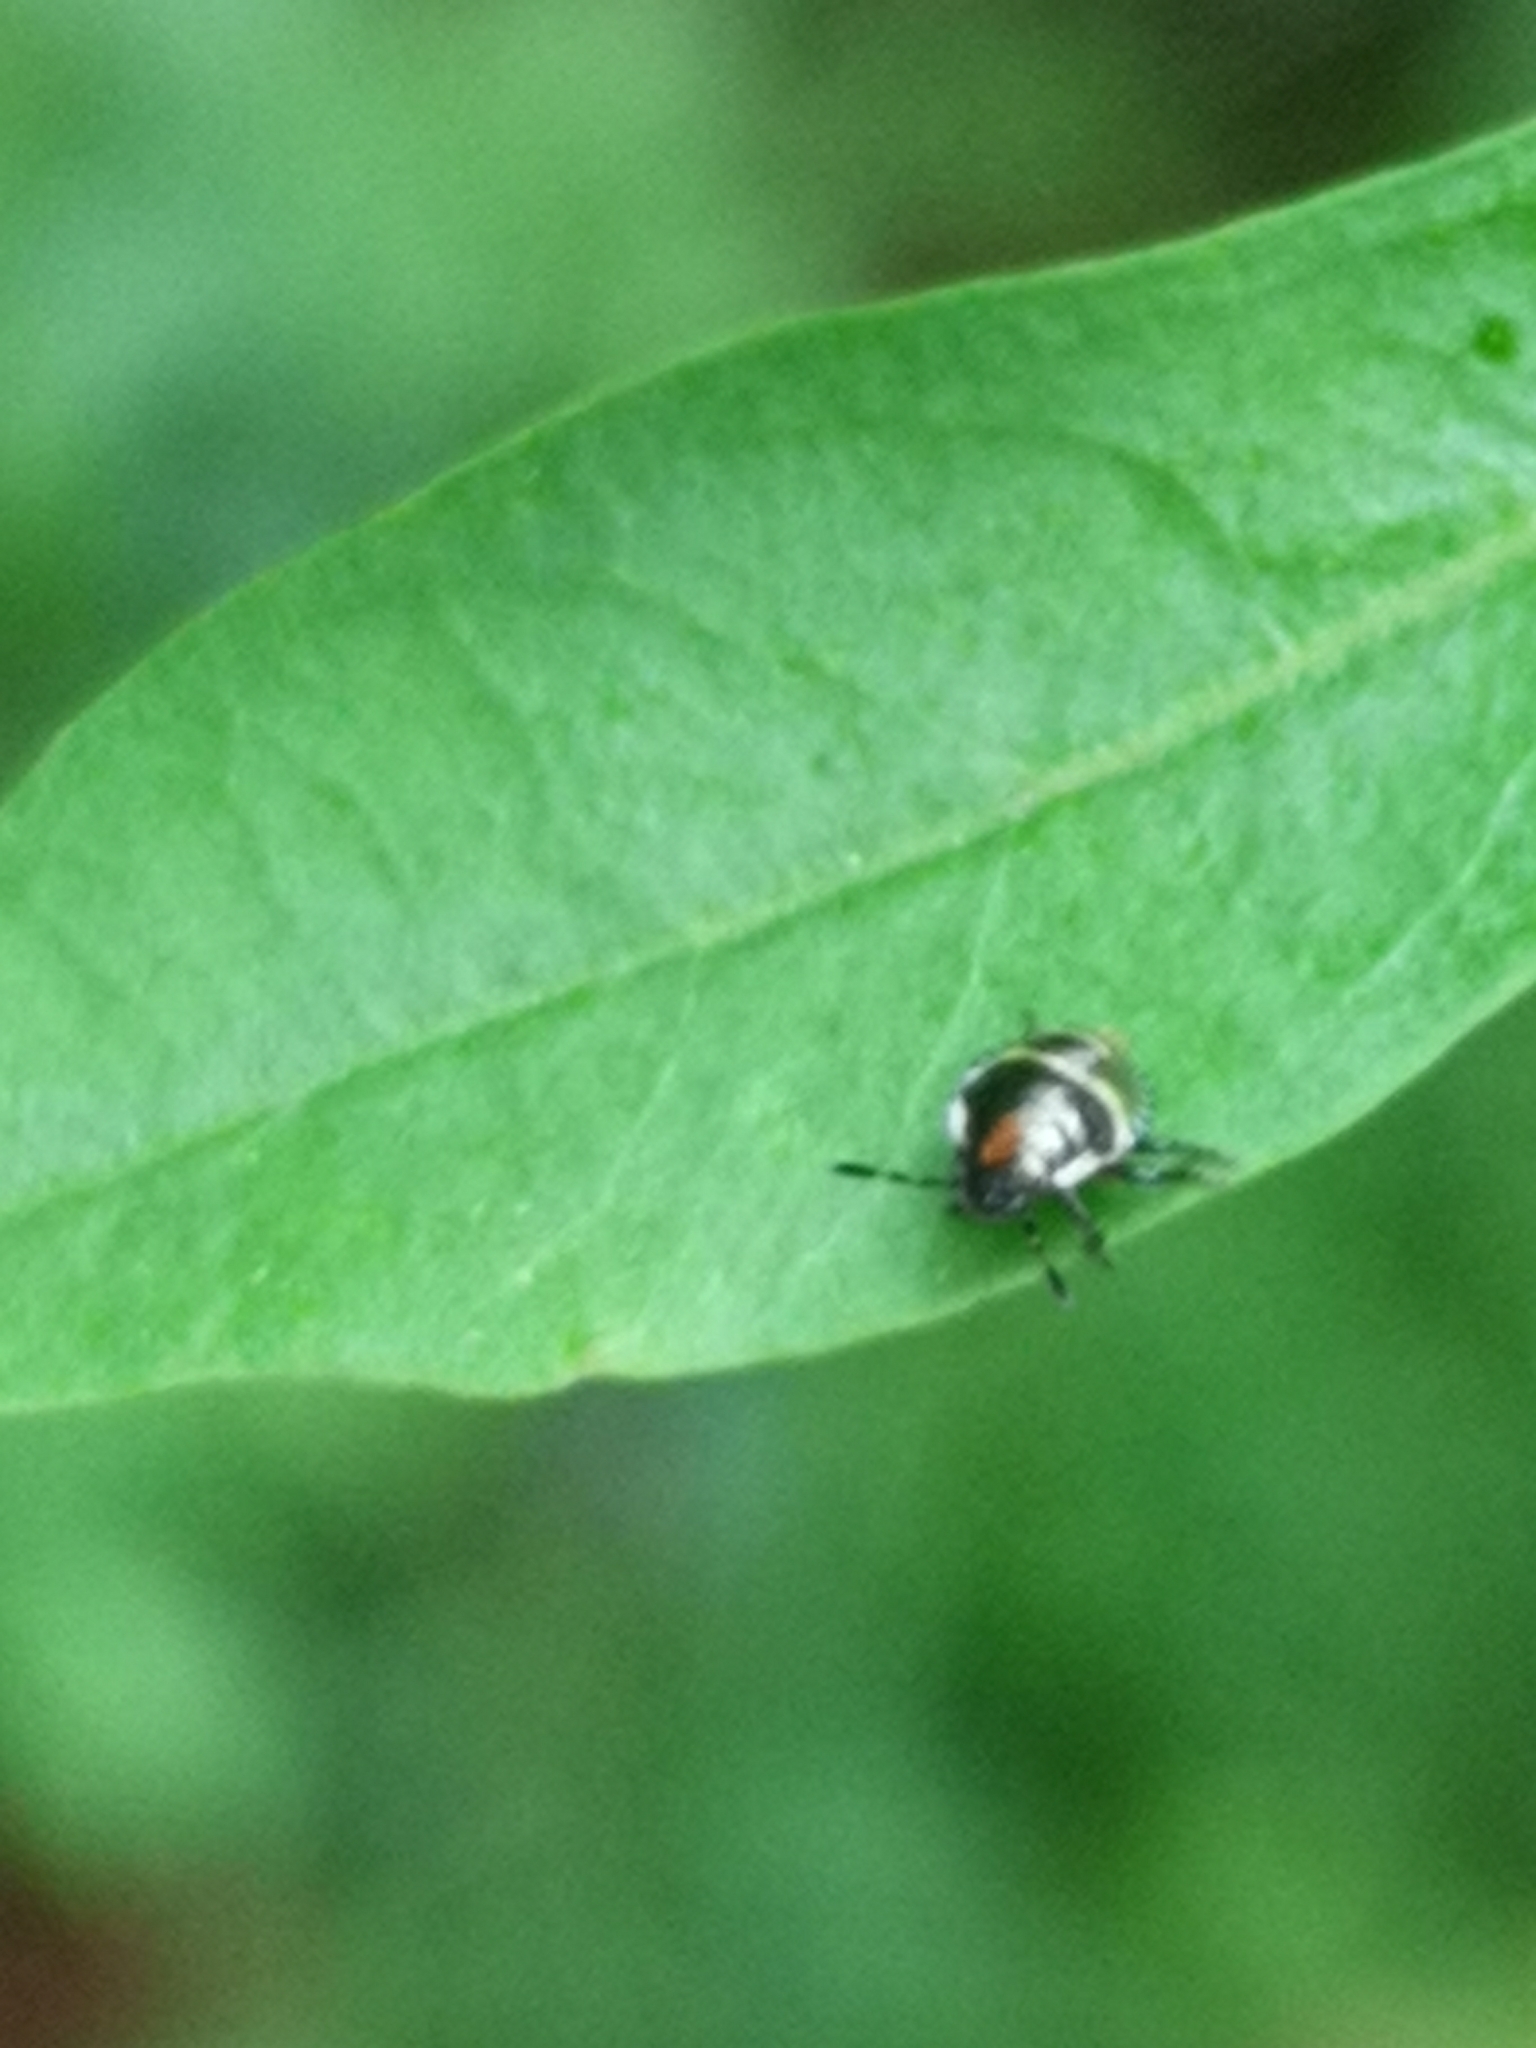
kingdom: Animalia
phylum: Arthropoda
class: Insecta
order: Hemiptera
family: Pentatomidae
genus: Palomena
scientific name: Palomena prasina
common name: Green shieldbug
